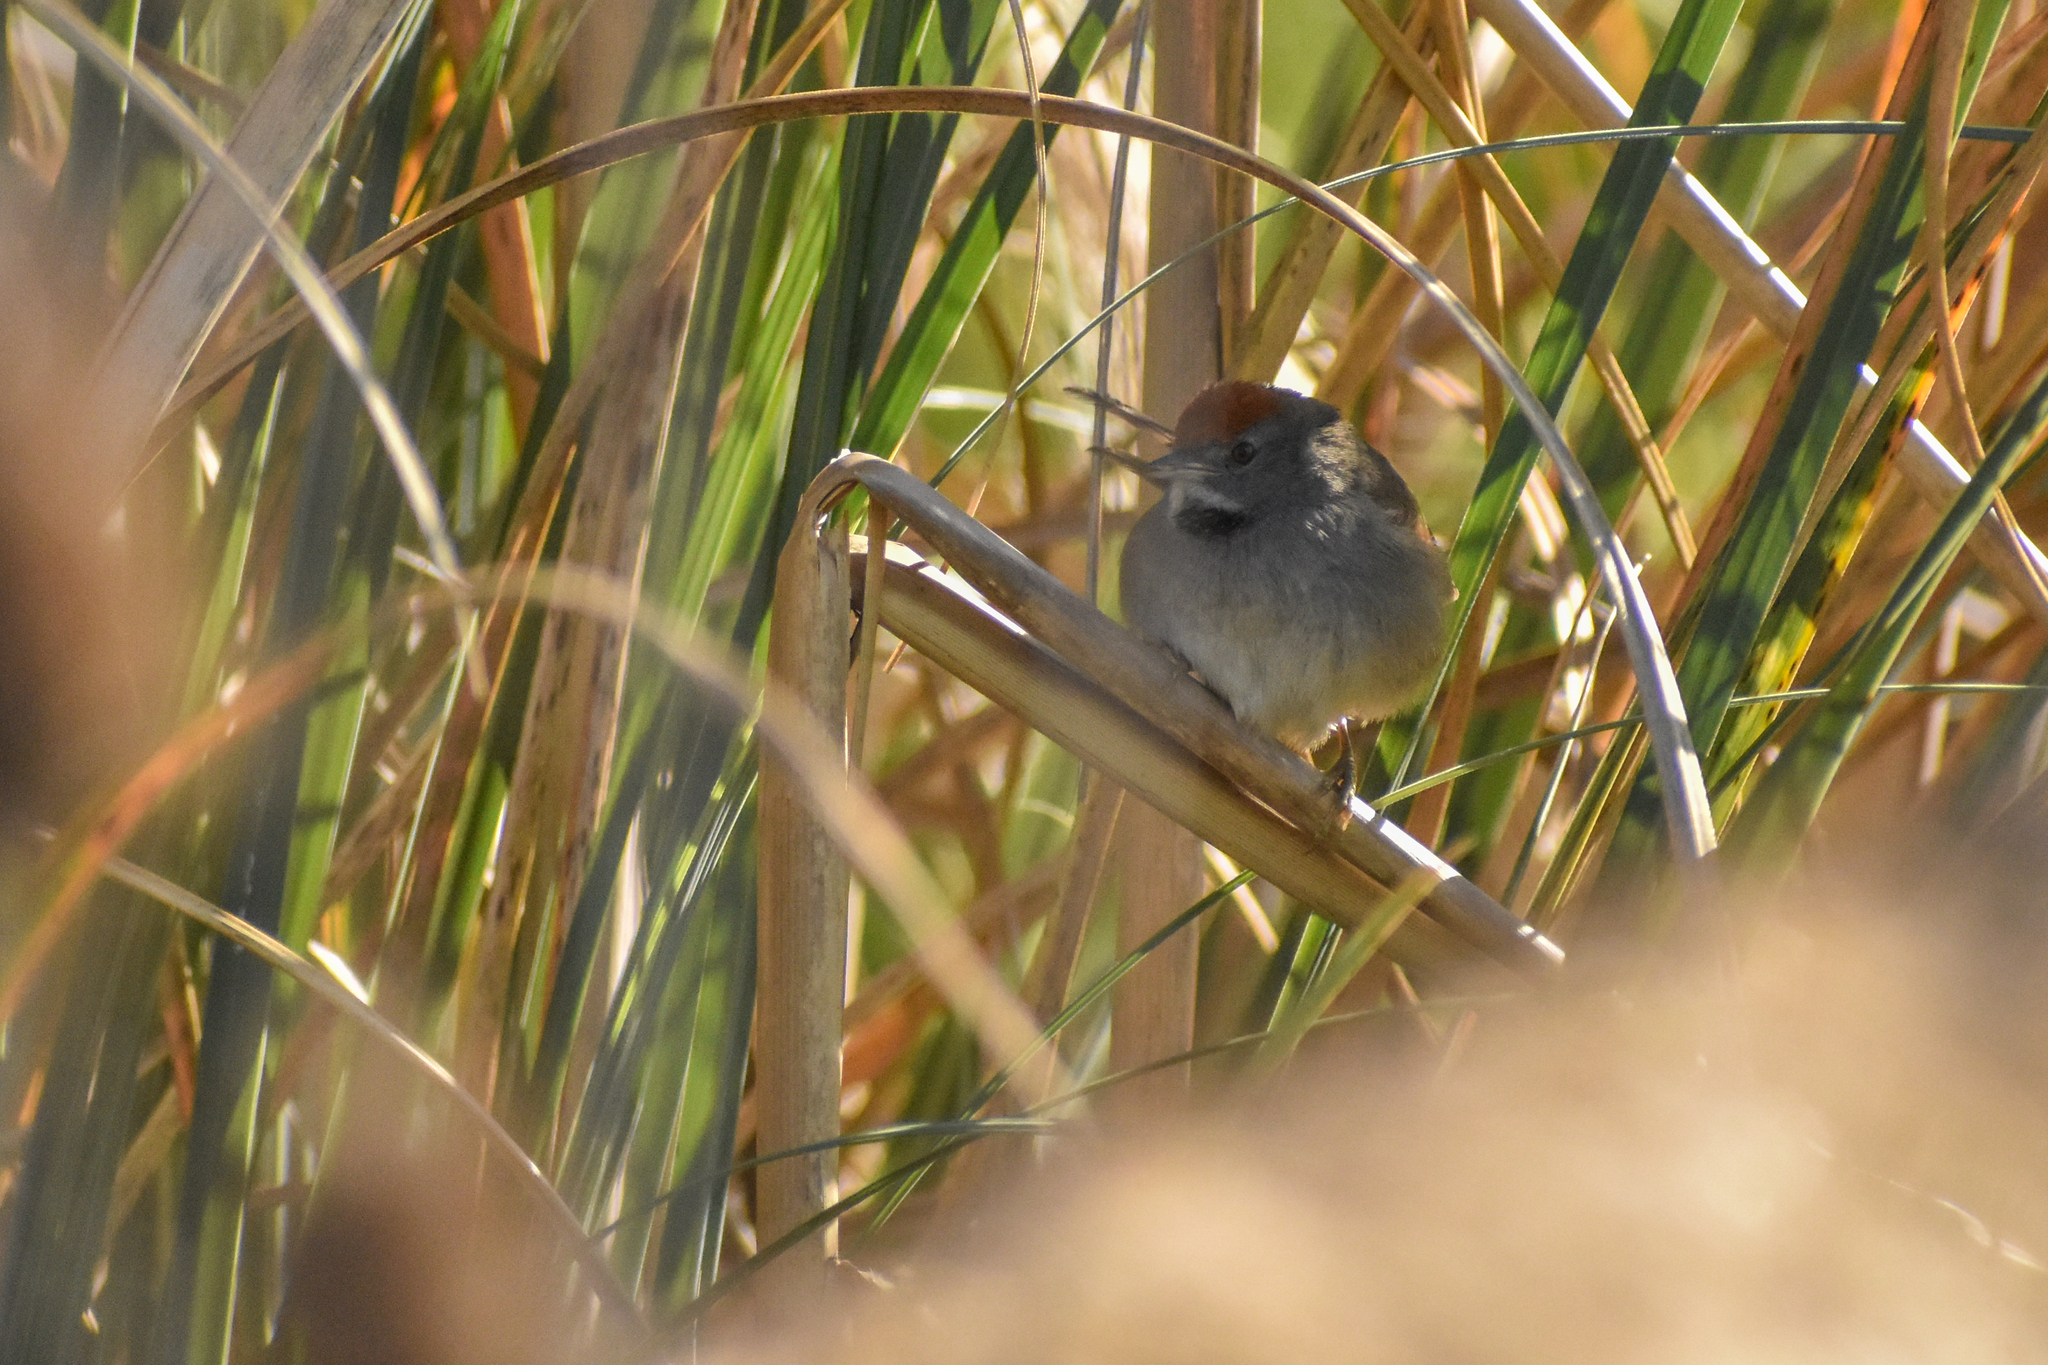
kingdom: Animalia
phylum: Chordata
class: Aves
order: Passeriformes
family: Furnariidae
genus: Synallaxis
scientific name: Synallaxis spixi
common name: Spix's spinetail
